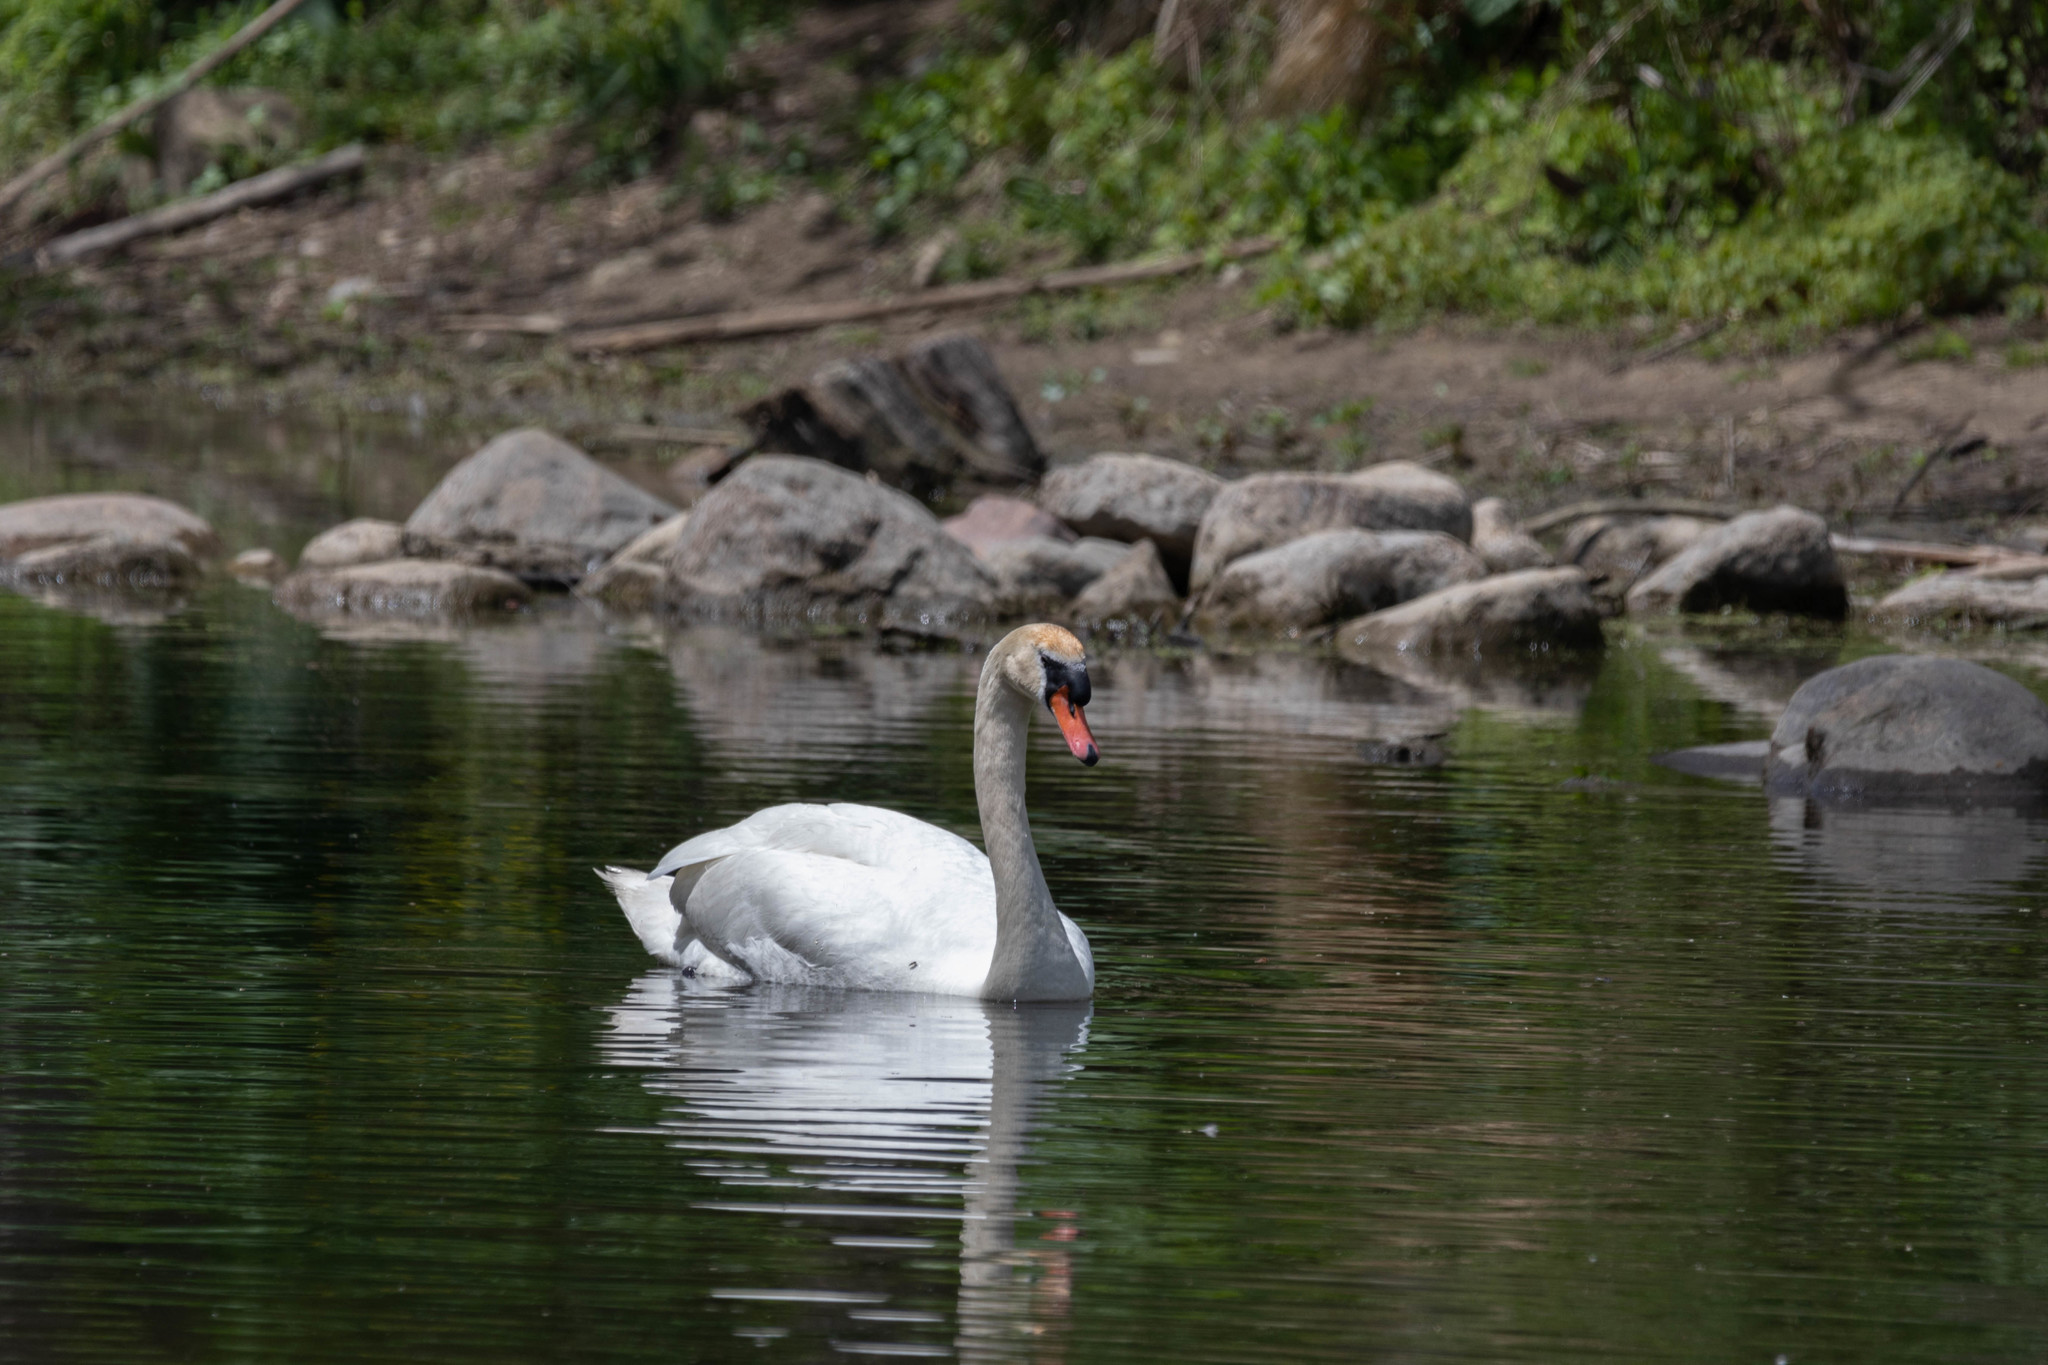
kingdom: Animalia
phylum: Chordata
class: Aves
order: Anseriformes
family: Anatidae
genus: Cygnus
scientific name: Cygnus olor
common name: Mute swan
